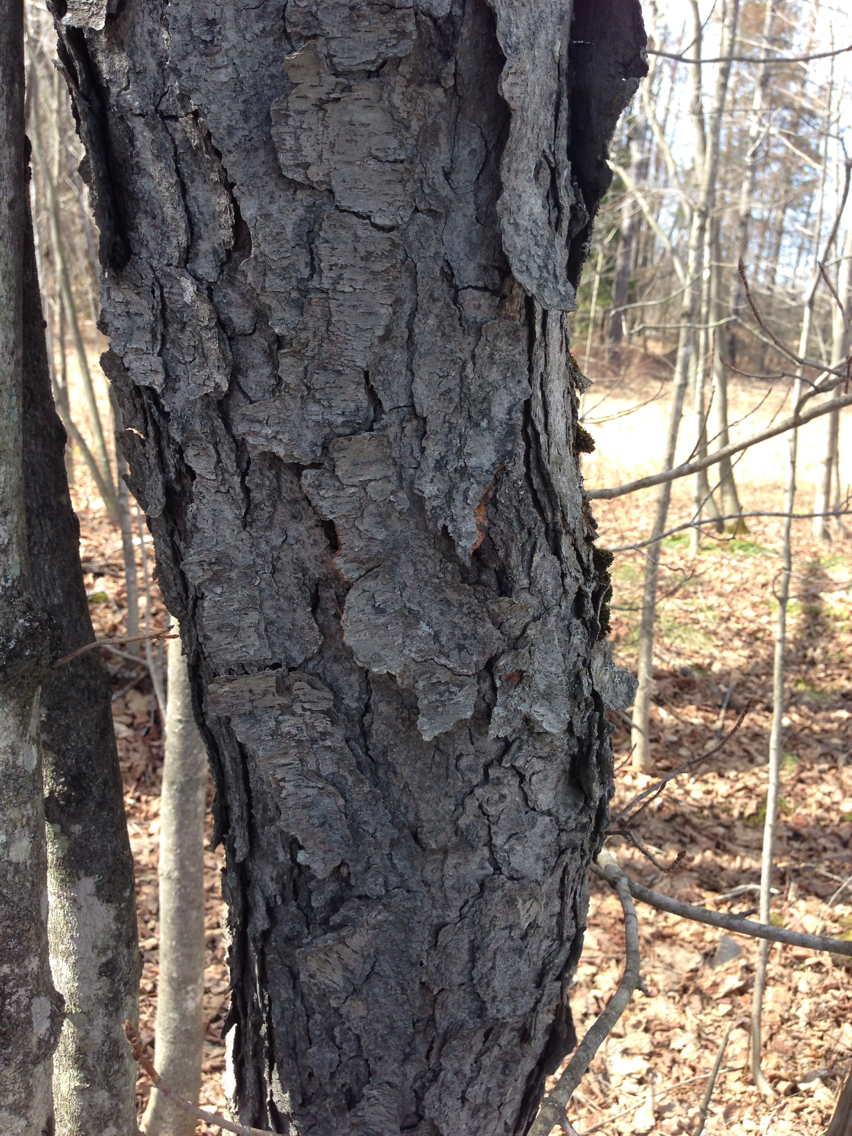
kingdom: Plantae
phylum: Tracheophyta
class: Magnoliopsida
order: Rosales
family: Rosaceae
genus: Prunus
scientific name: Prunus serotina
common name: Black cherry
